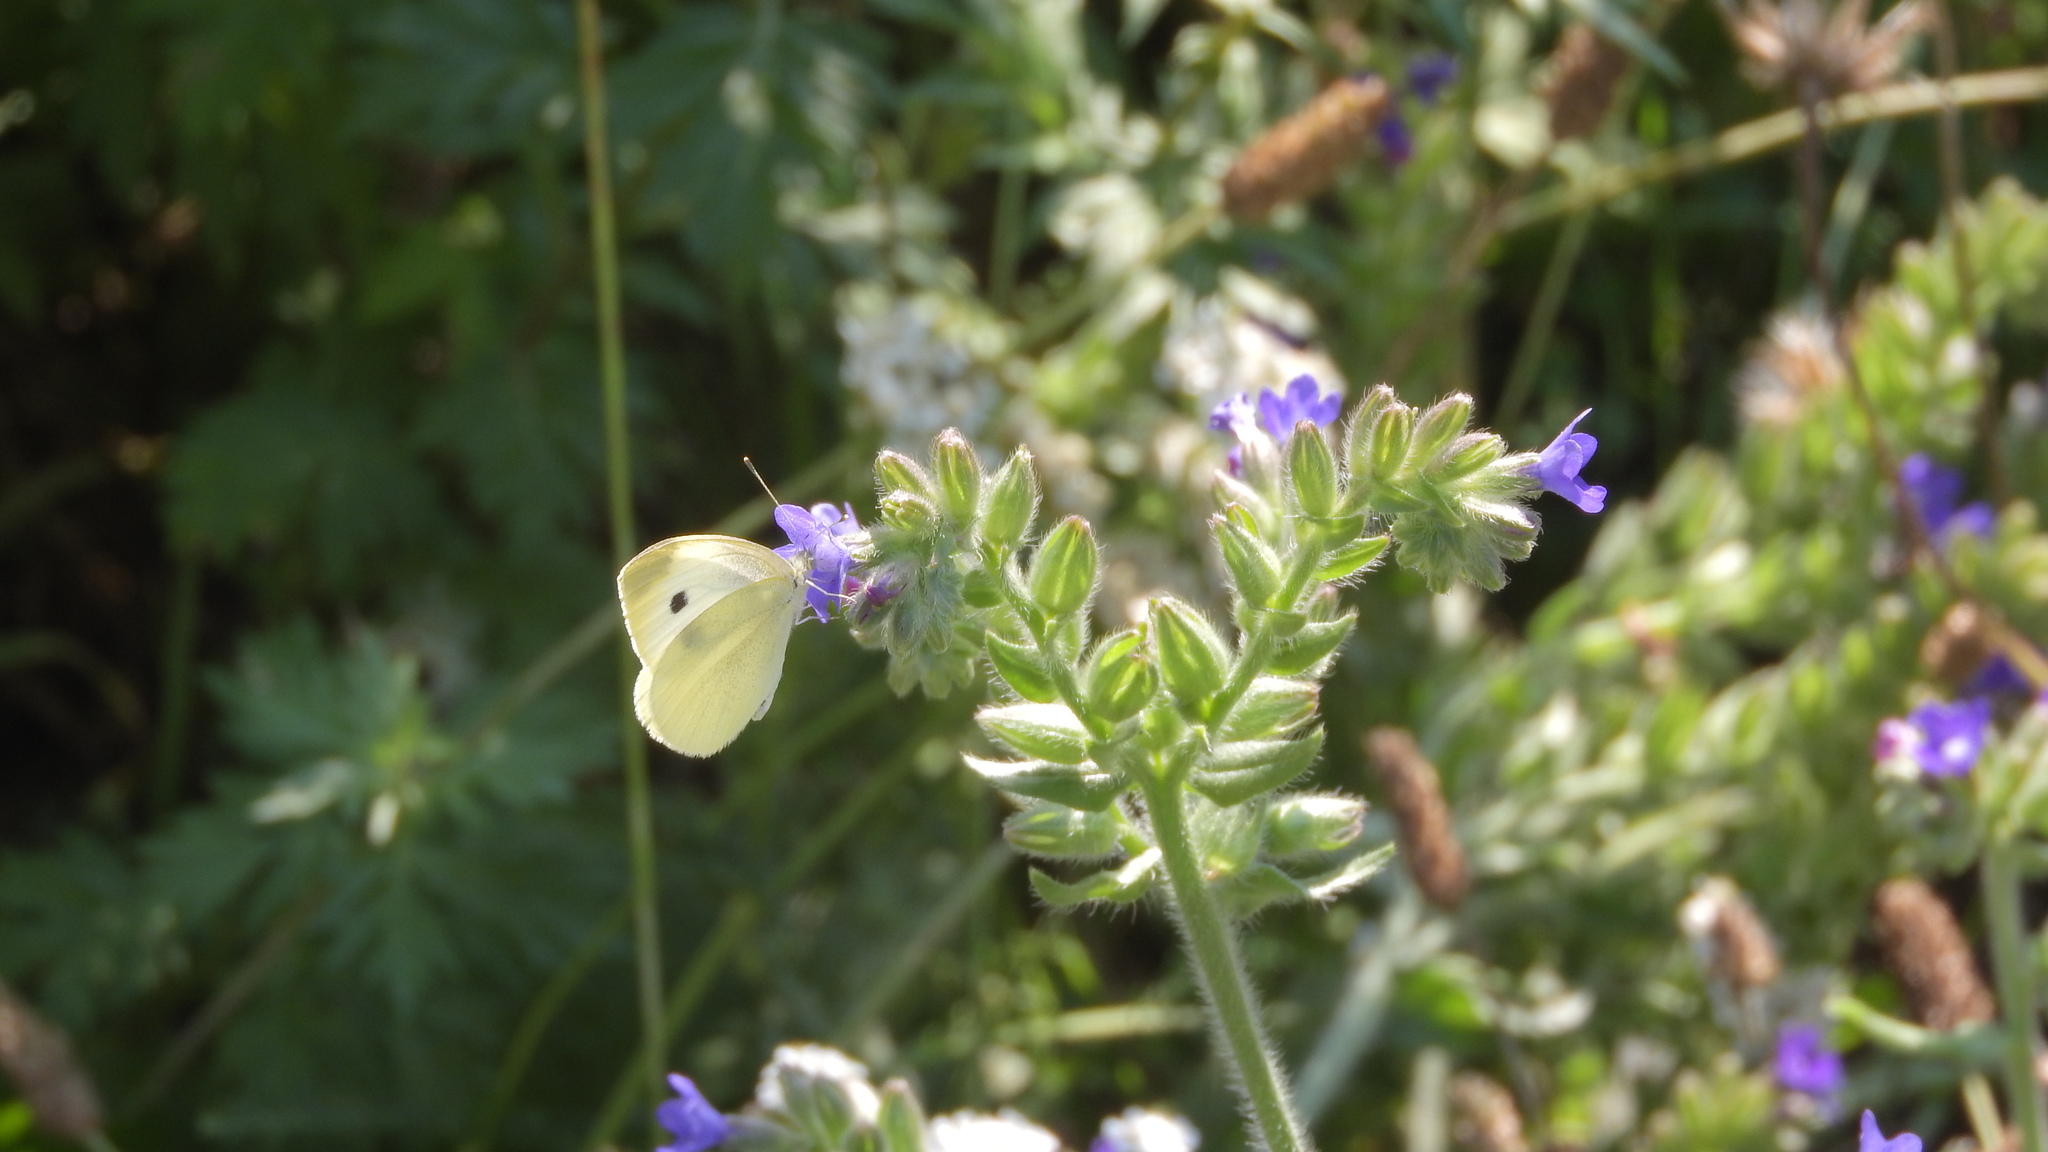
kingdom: Animalia
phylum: Arthropoda
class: Insecta
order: Lepidoptera
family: Pieridae
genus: Pieris
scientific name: Pieris rapae
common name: Small white
